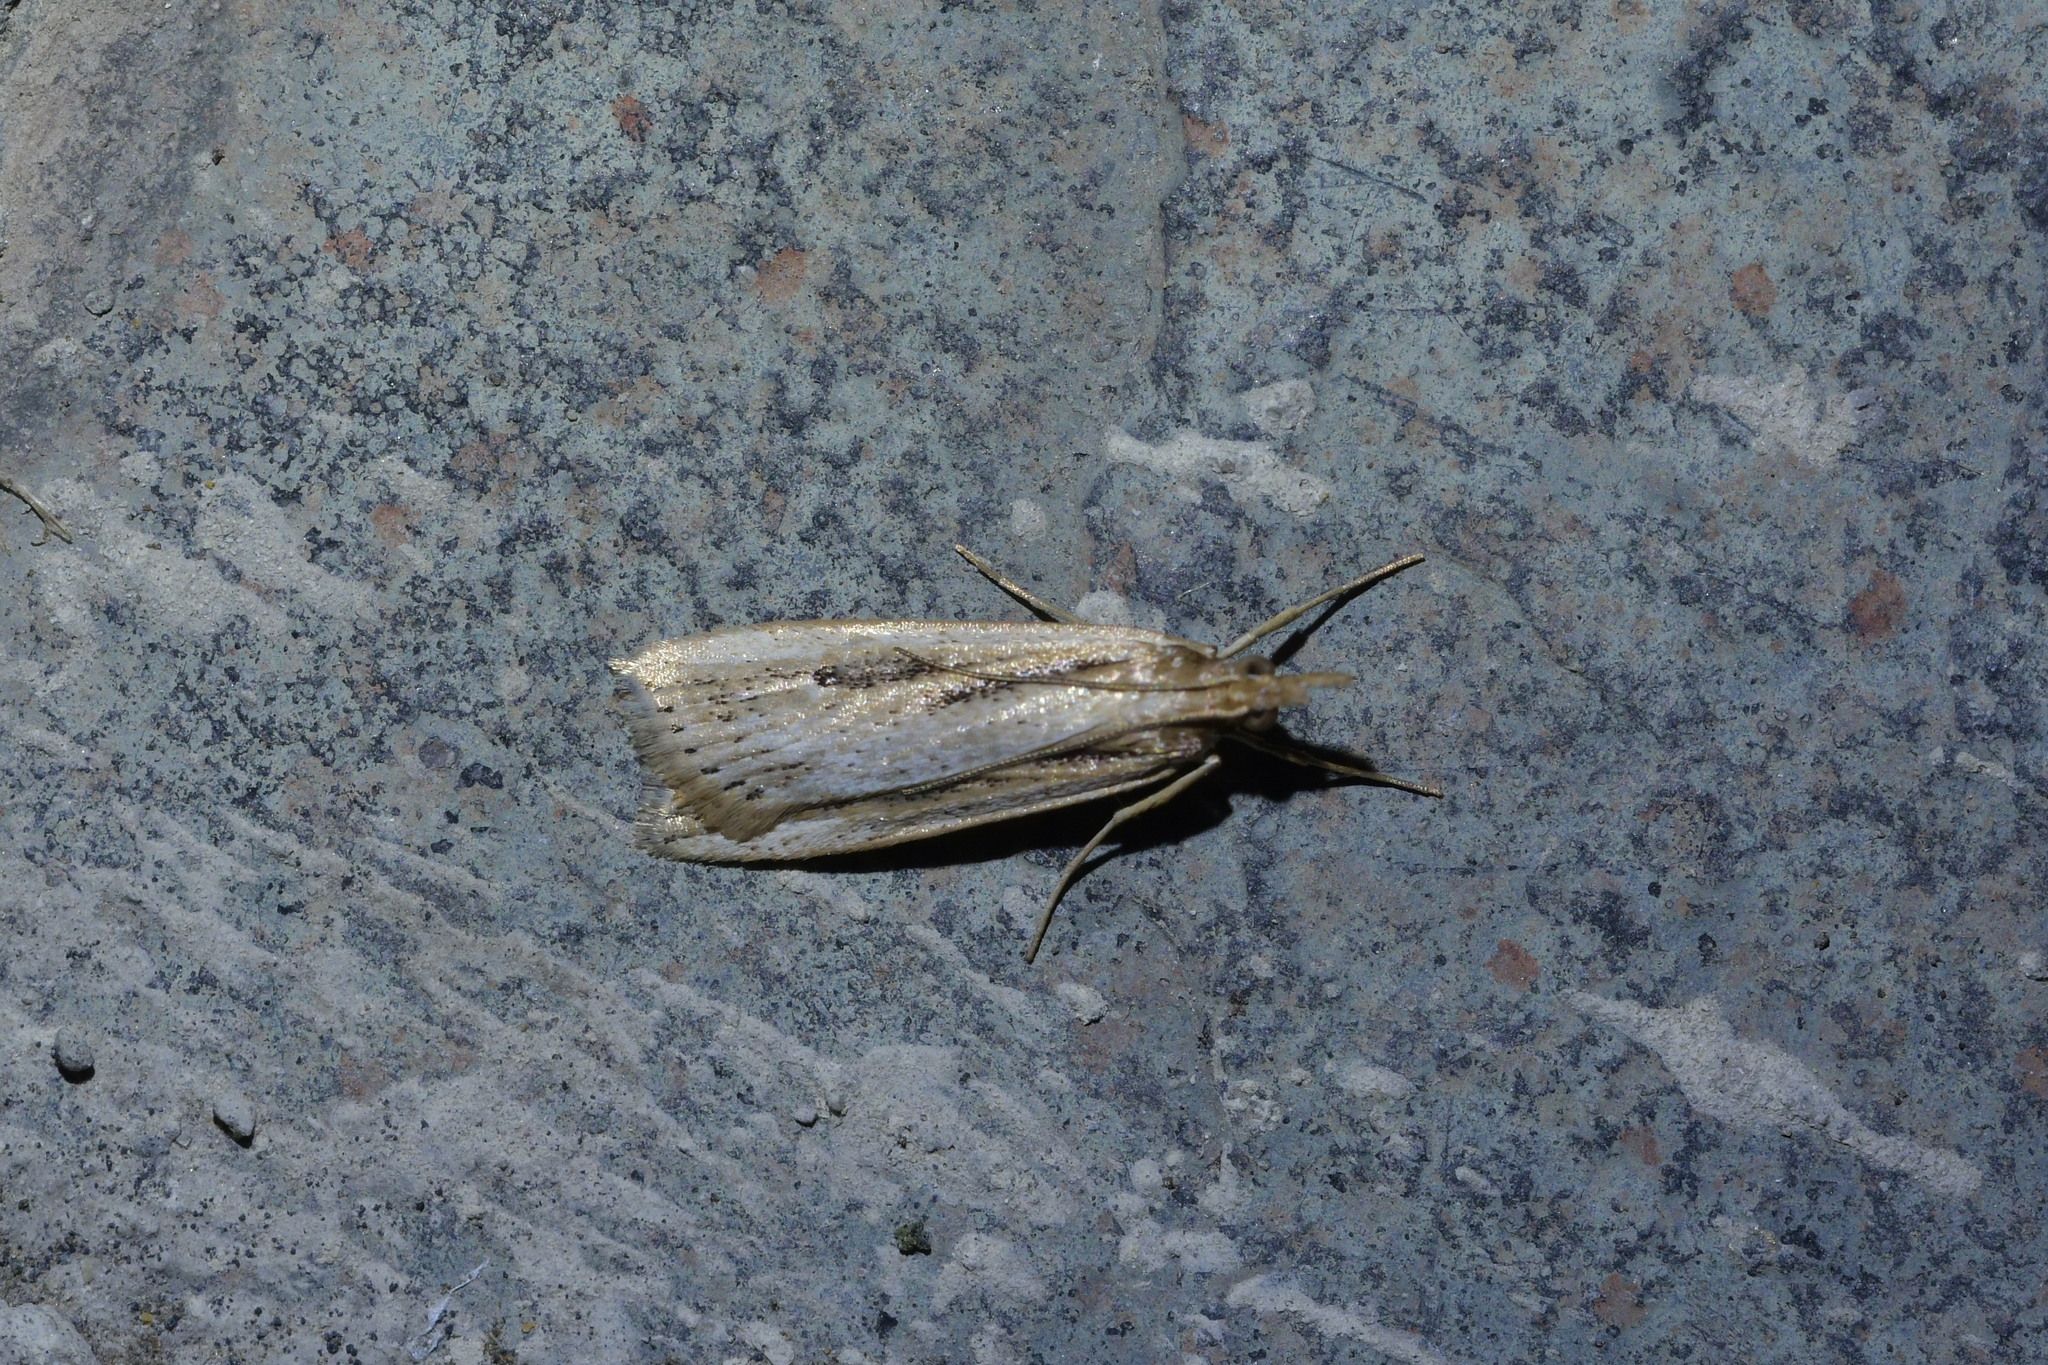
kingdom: Animalia
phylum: Arthropoda
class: Insecta
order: Lepidoptera
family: Crambidae
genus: Eudonia
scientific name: Eudonia sabulosella
